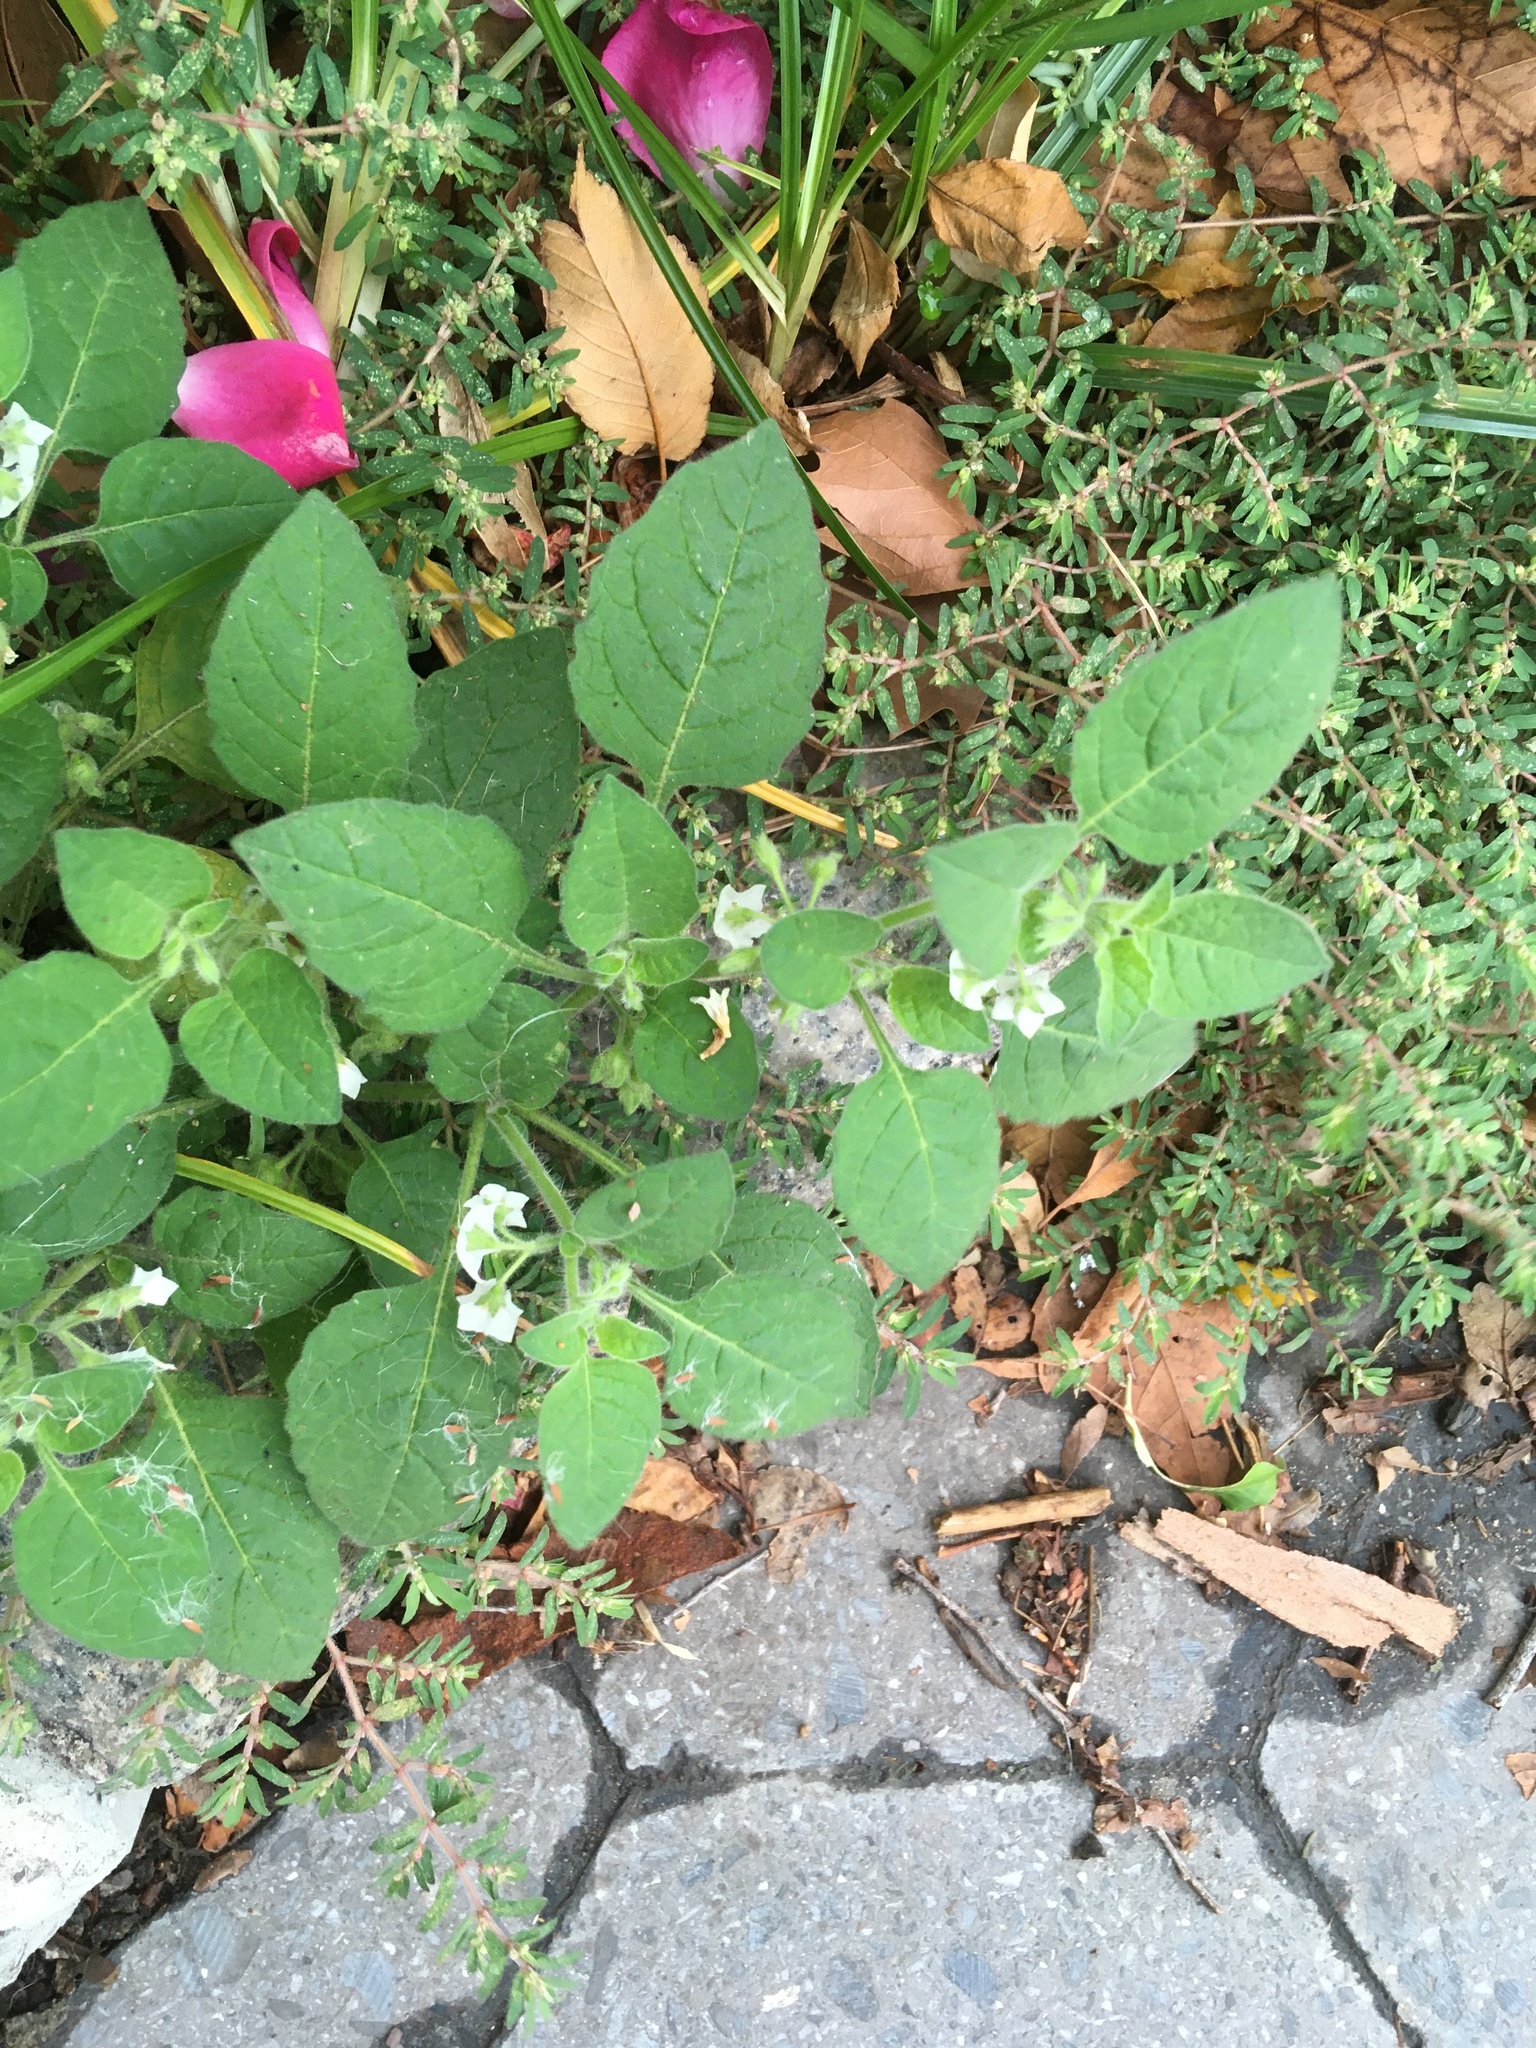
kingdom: Plantae
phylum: Tracheophyta
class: Magnoliopsida
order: Solanales
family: Solanaceae
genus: Solanum
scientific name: Solanum sarrachoides
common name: Leafy-fruited nightshade
